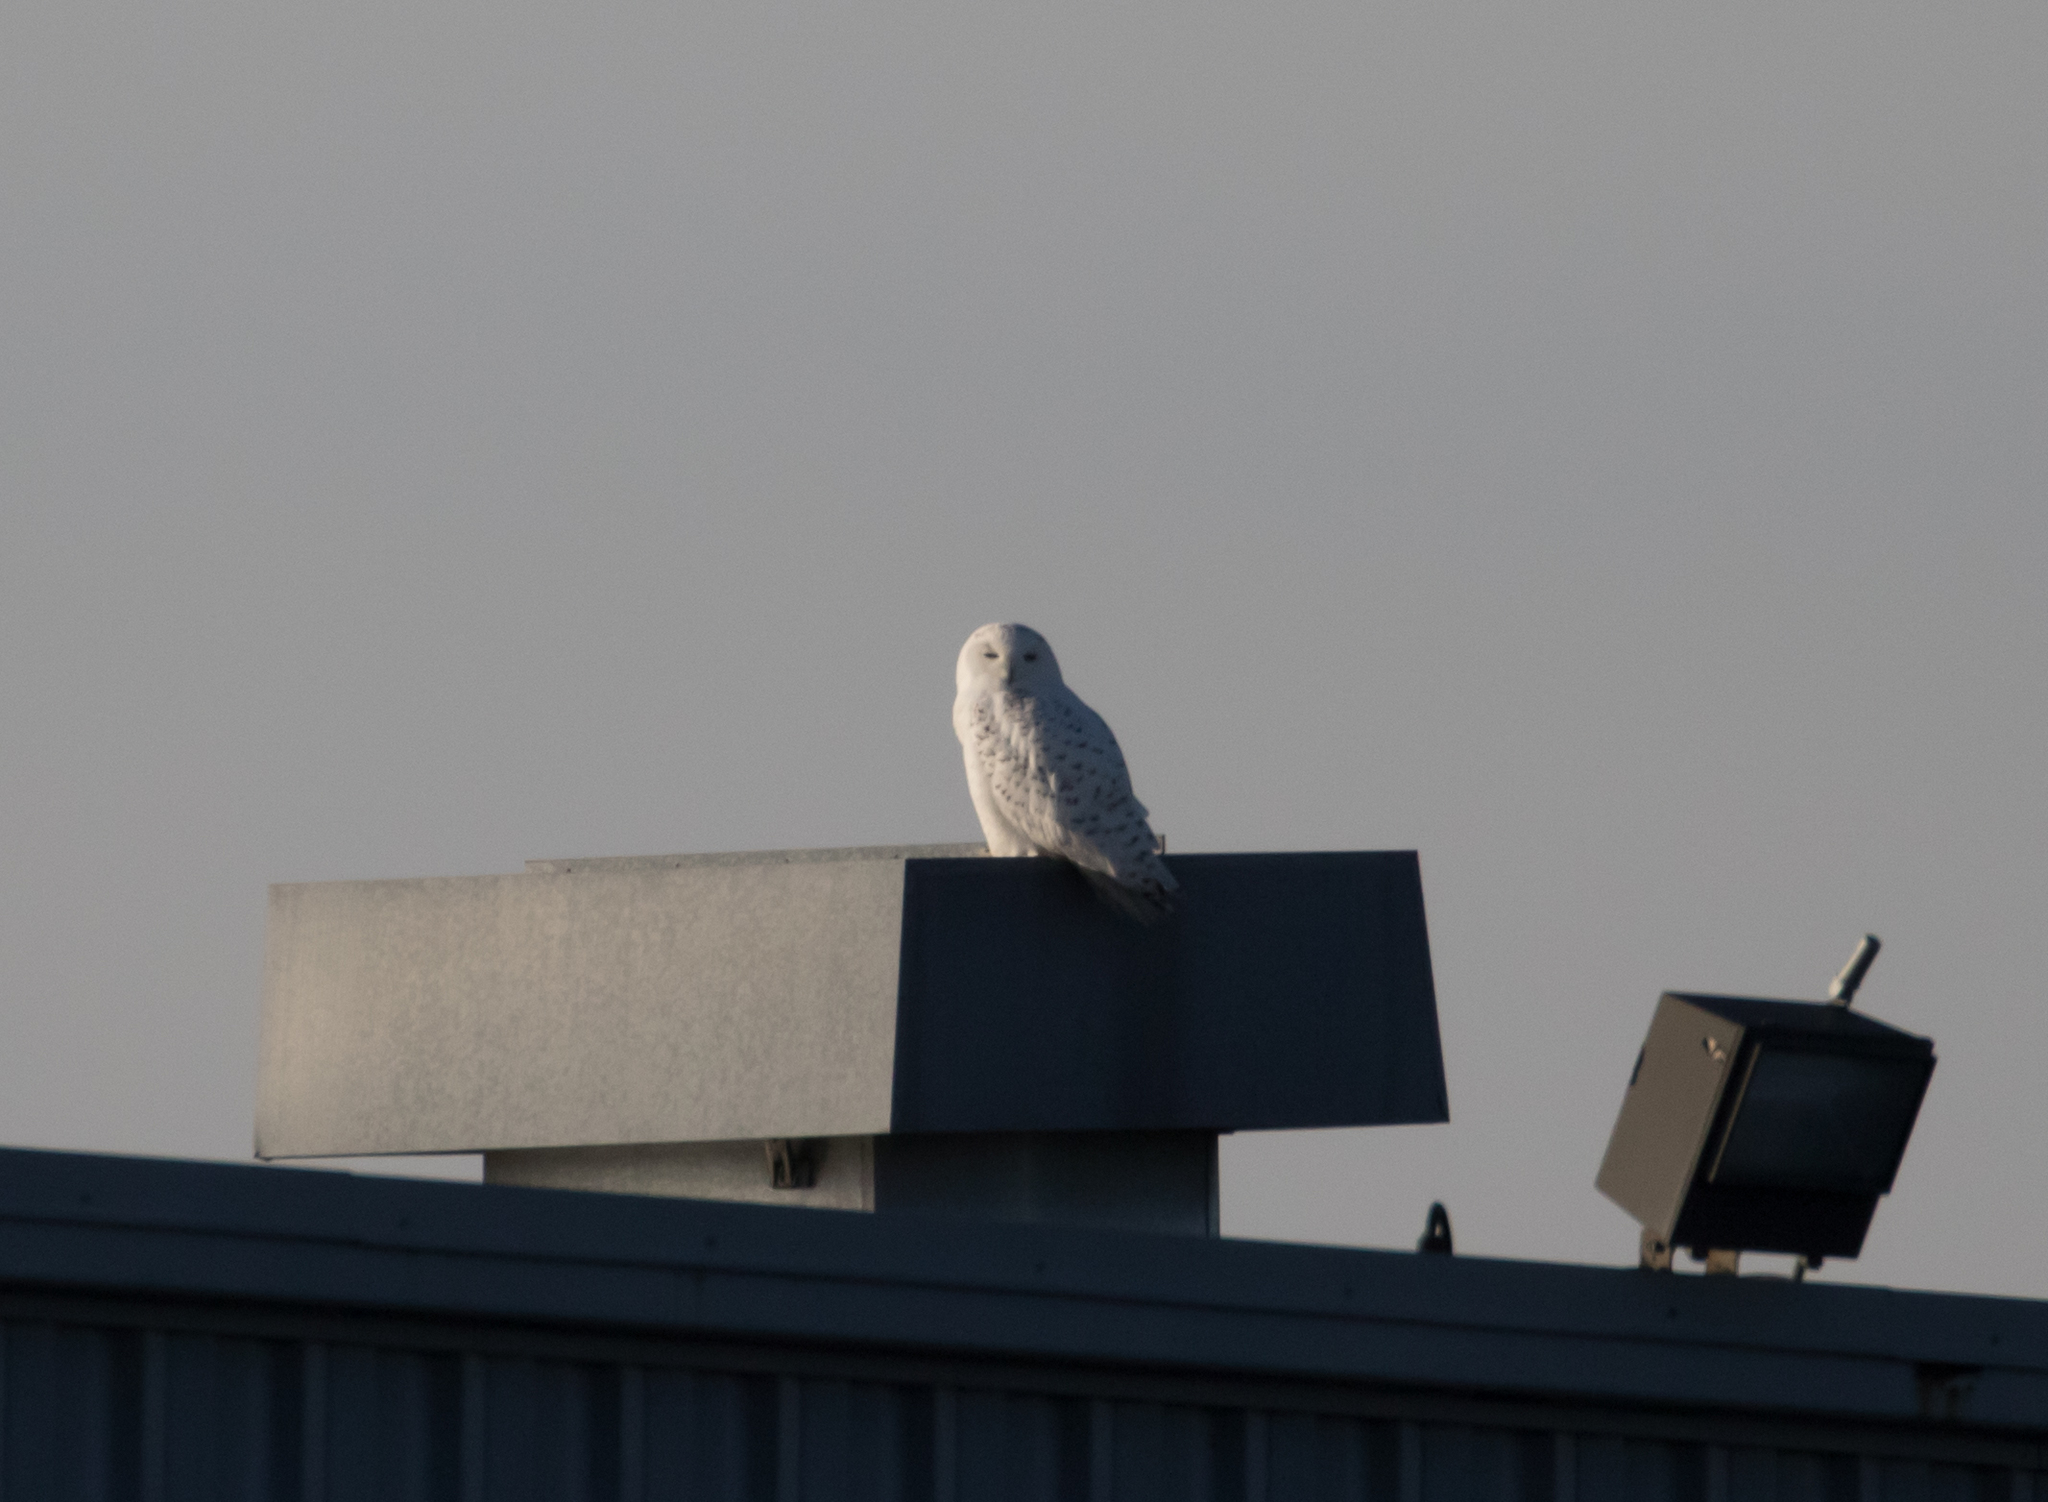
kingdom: Animalia
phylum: Chordata
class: Aves
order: Strigiformes
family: Strigidae
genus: Bubo
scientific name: Bubo scandiacus
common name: Snowy owl
